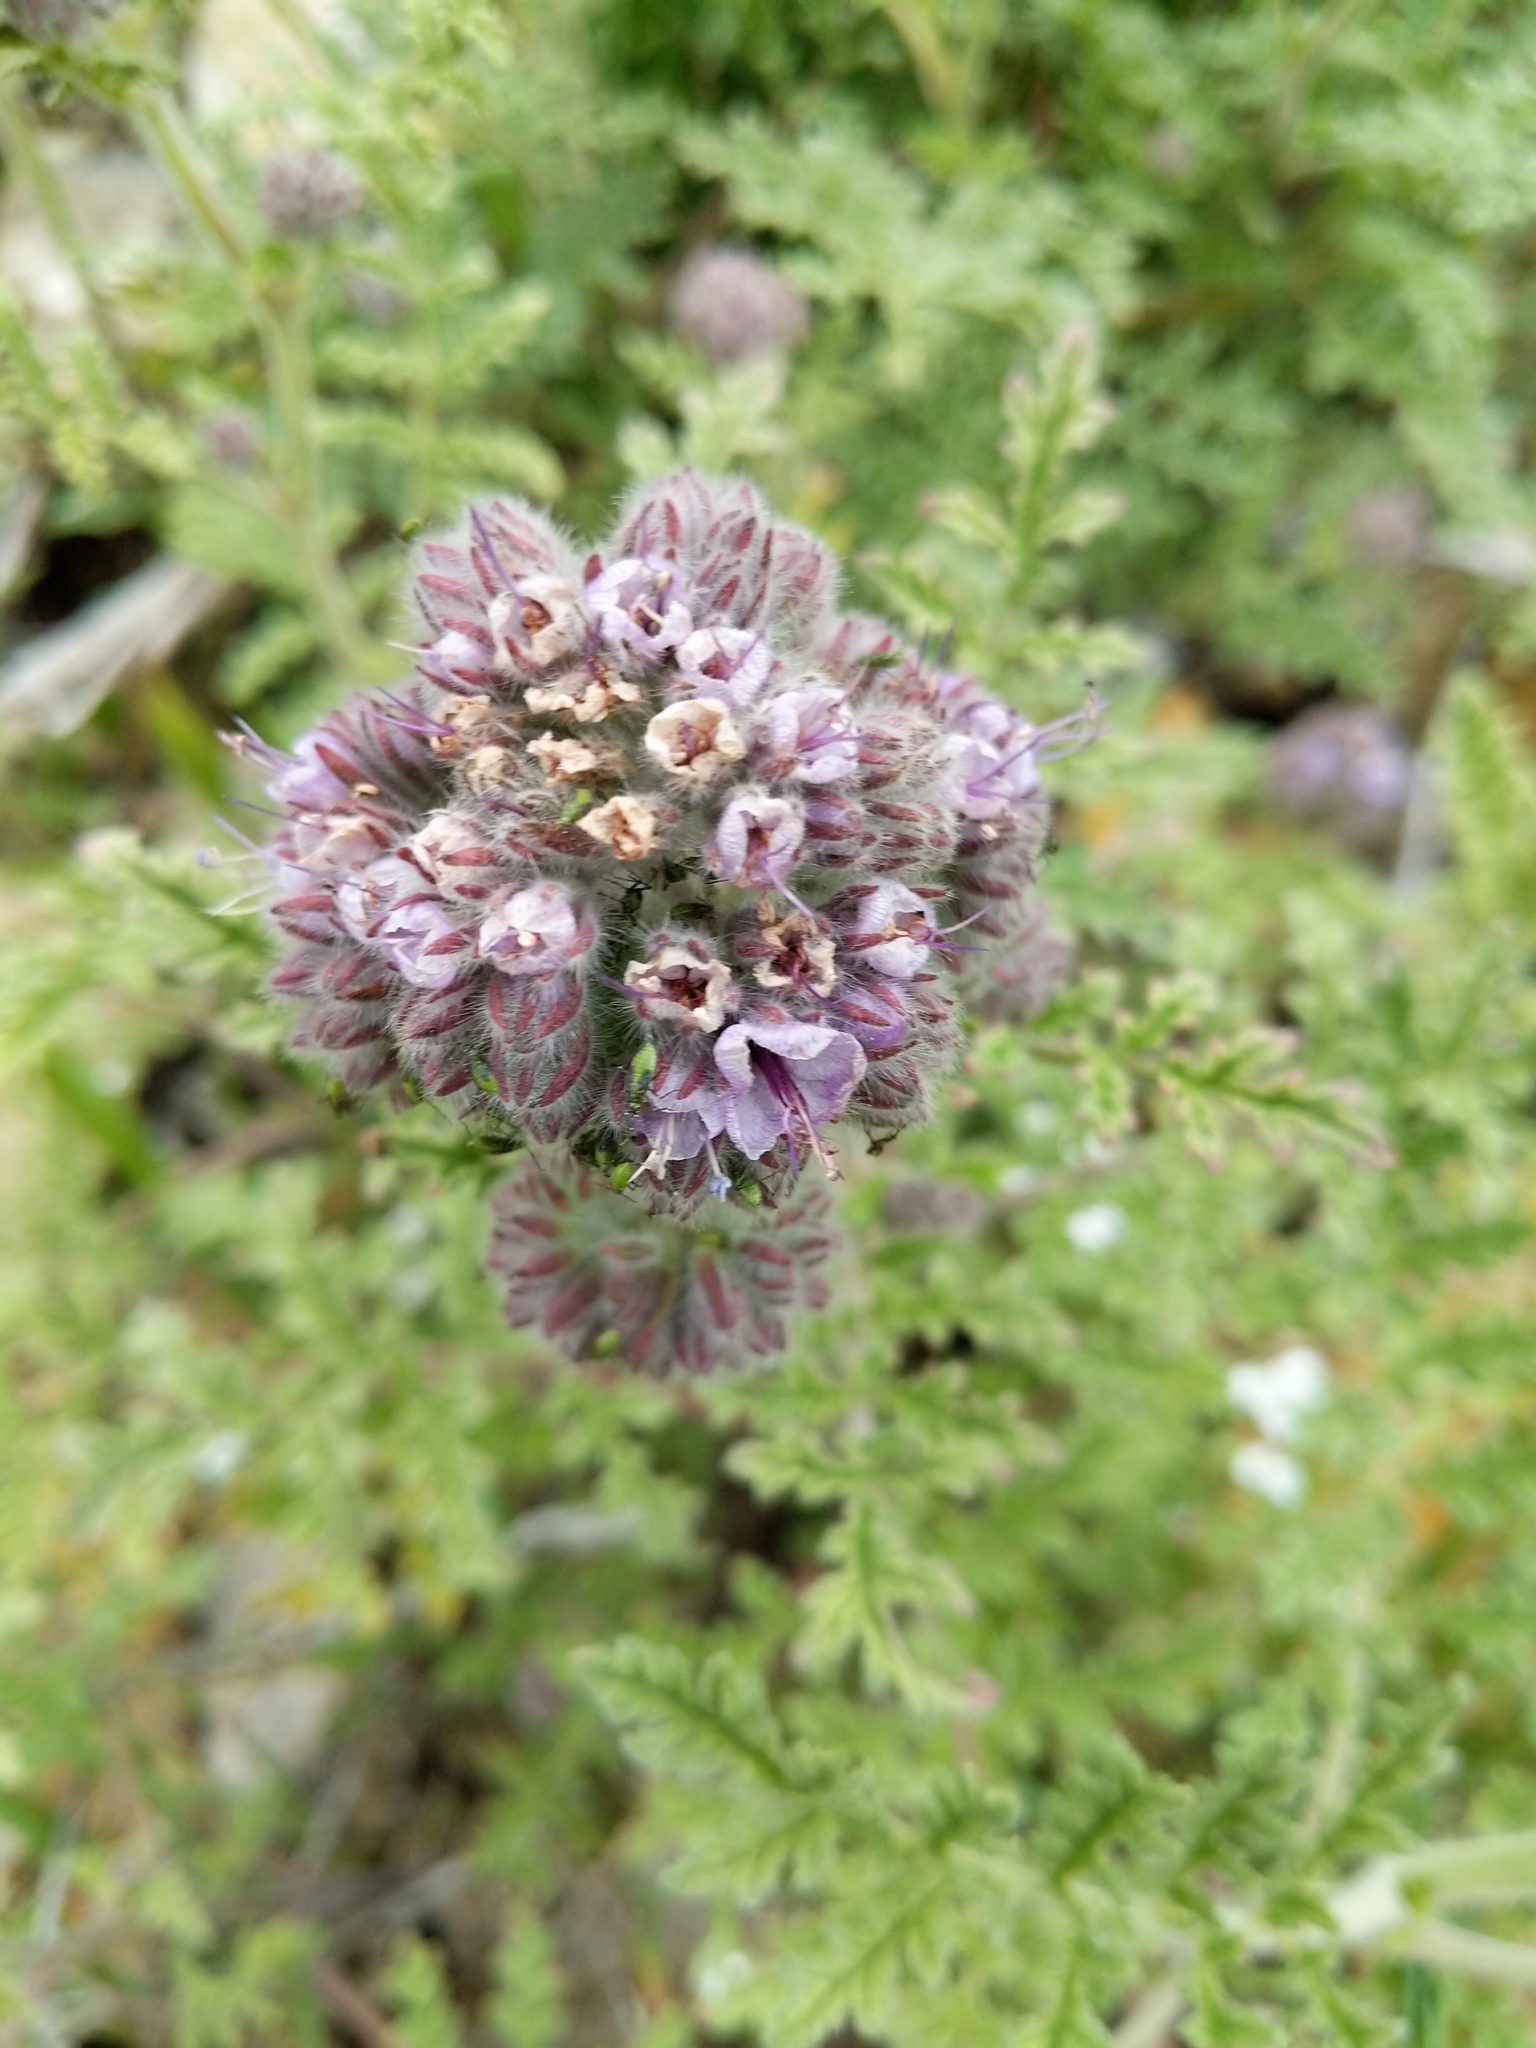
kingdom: Plantae
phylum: Tracheophyta
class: Magnoliopsida
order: Boraginales
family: Hydrophyllaceae
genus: Phacelia
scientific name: Phacelia hubbyi
